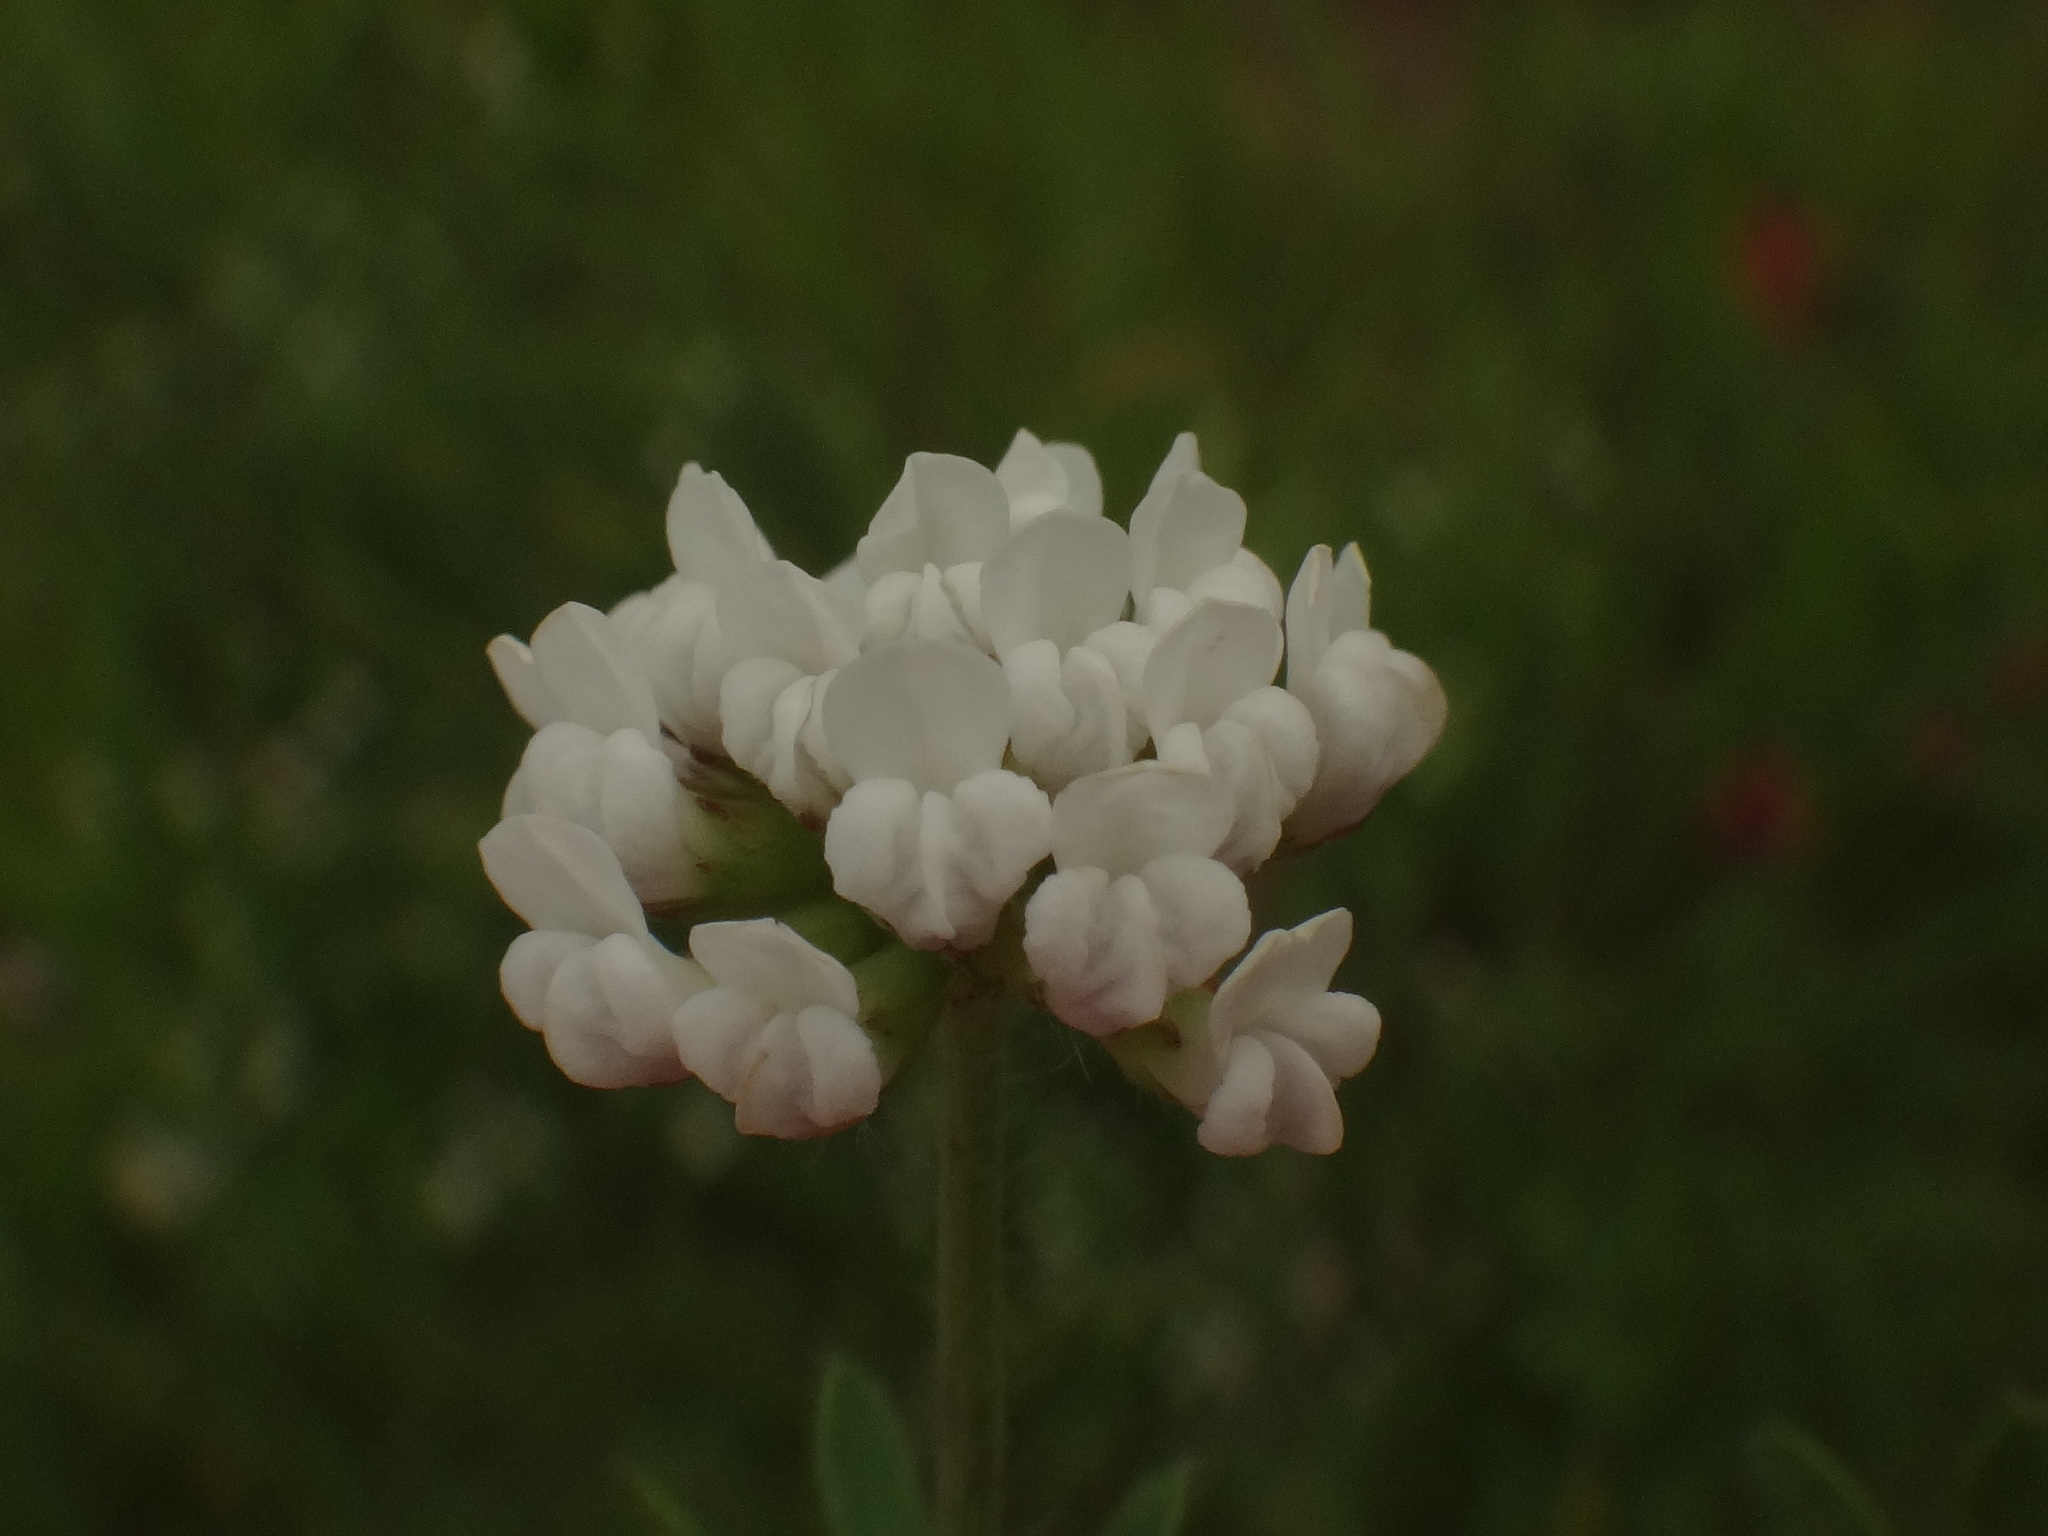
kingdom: Plantae
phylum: Tracheophyta
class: Magnoliopsida
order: Fabales
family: Fabaceae
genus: Lotus
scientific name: Lotus herbaceus
